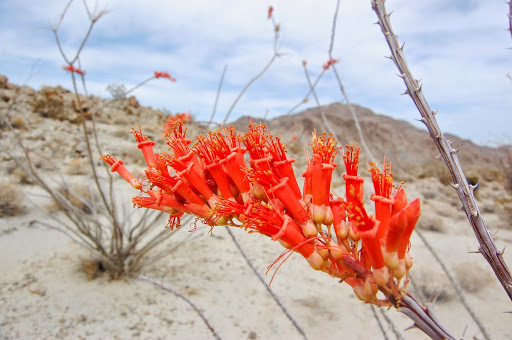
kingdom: Plantae
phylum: Tracheophyta
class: Magnoliopsida
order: Ericales
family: Fouquieriaceae
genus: Fouquieria
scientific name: Fouquieria splendens
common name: Vine-cactus
